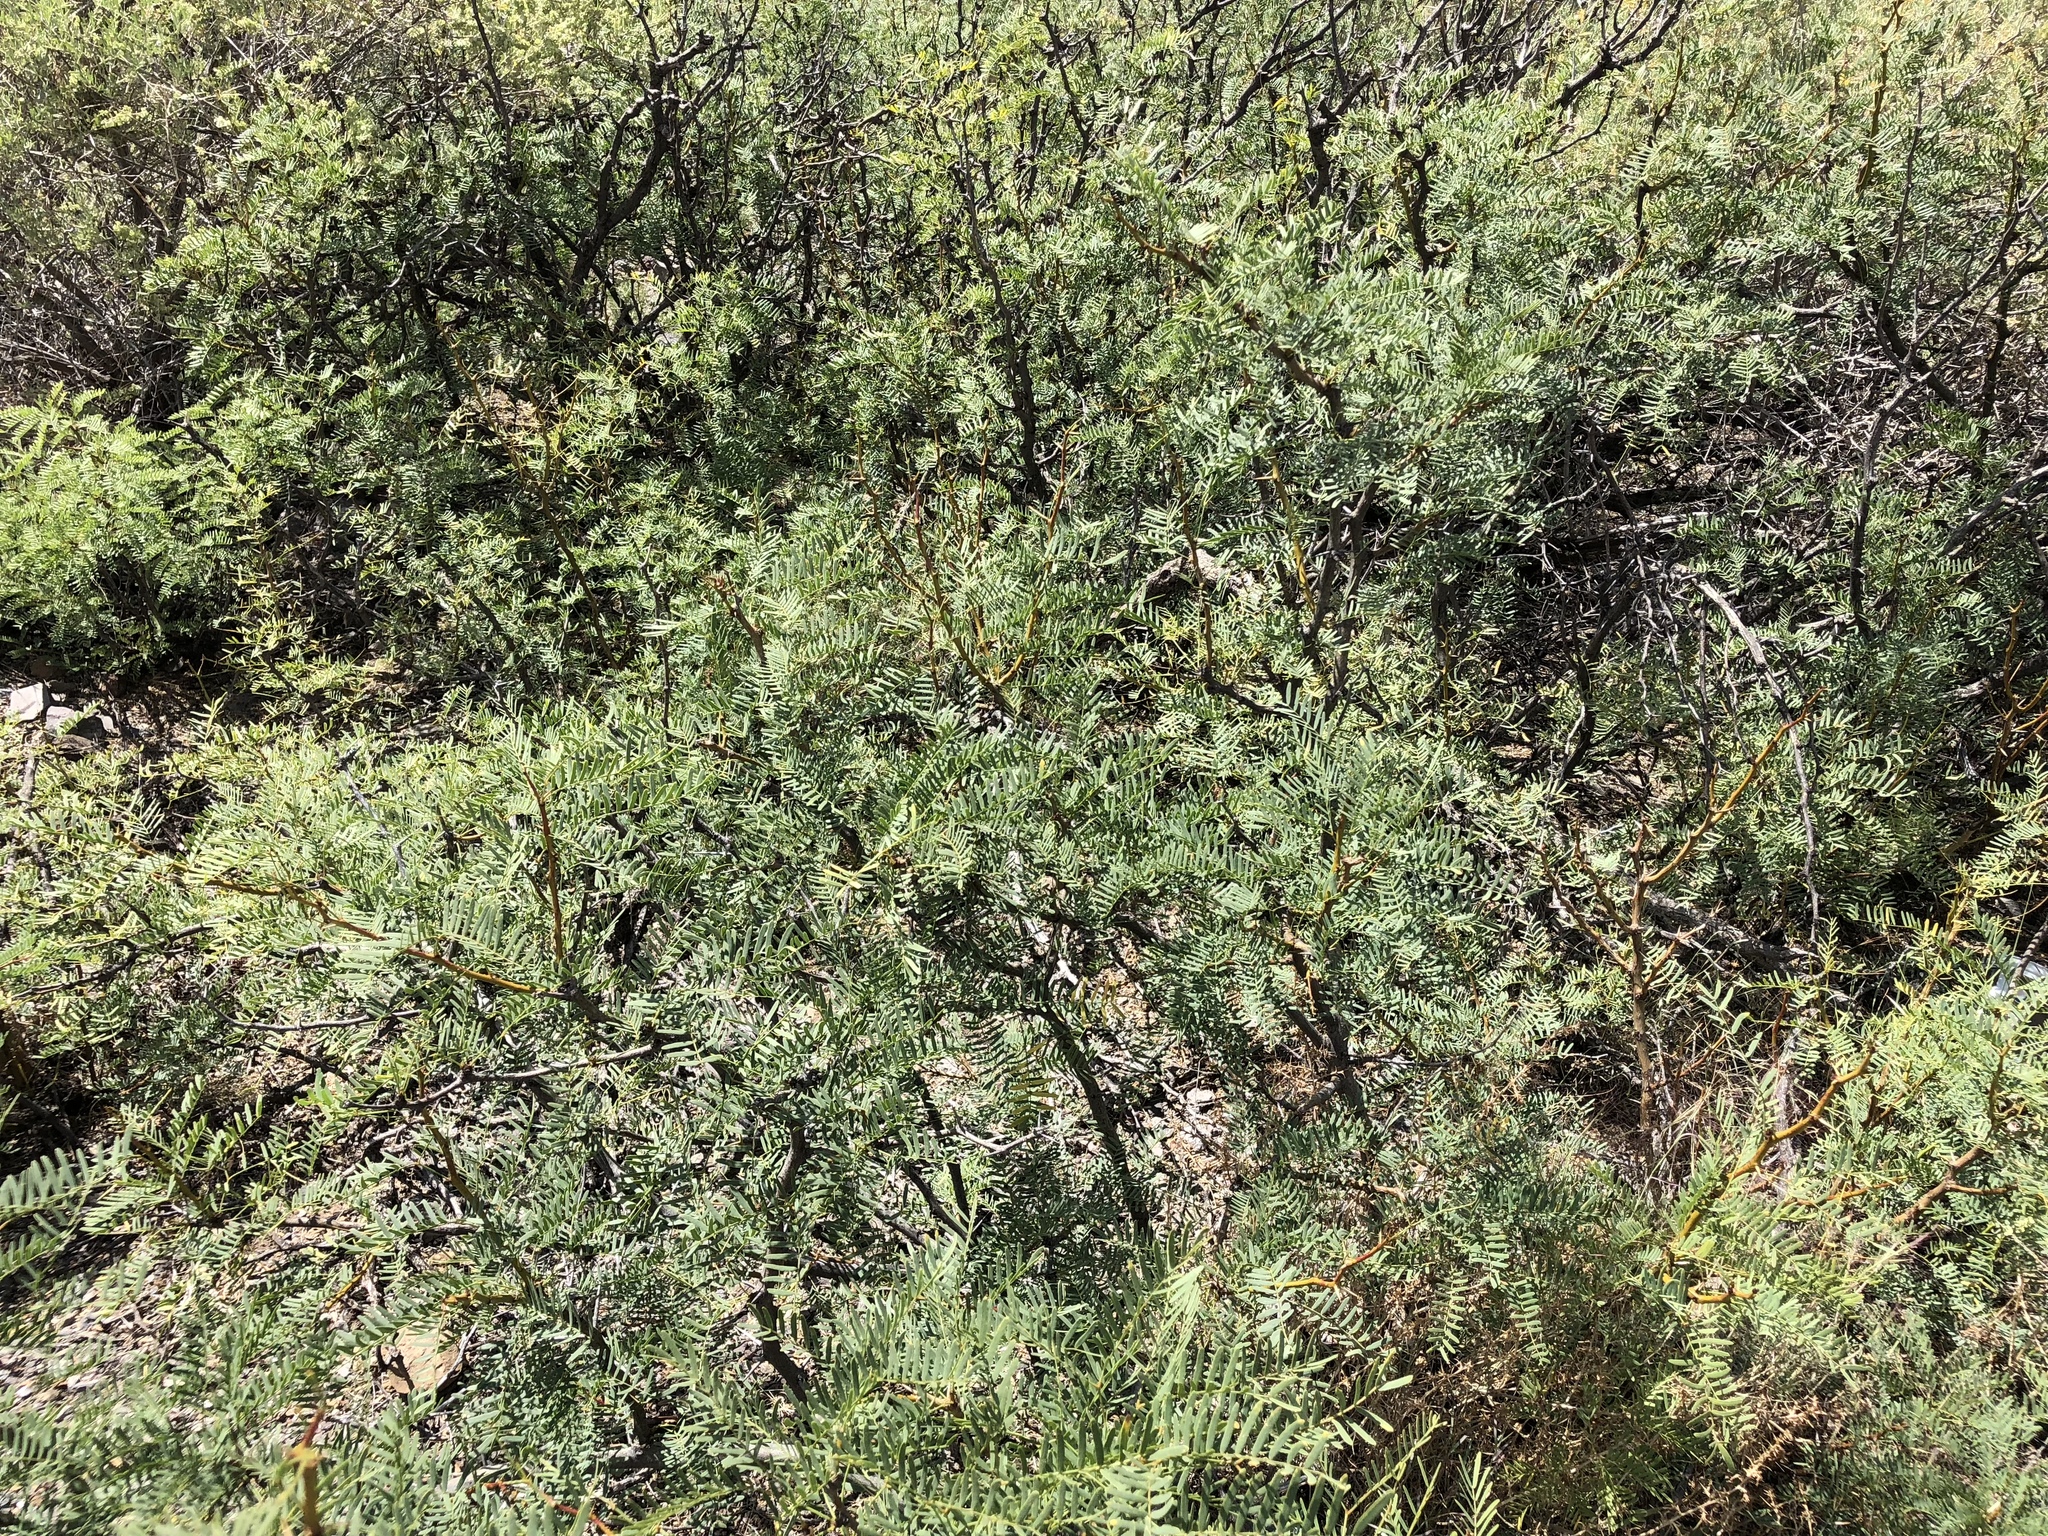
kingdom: Plantae
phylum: Tracheophyta
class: Magnoliopsida
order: Fabales
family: Fabaceae
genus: Prosopis
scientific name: Prosopis glandulosa
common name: Honey mesquite
